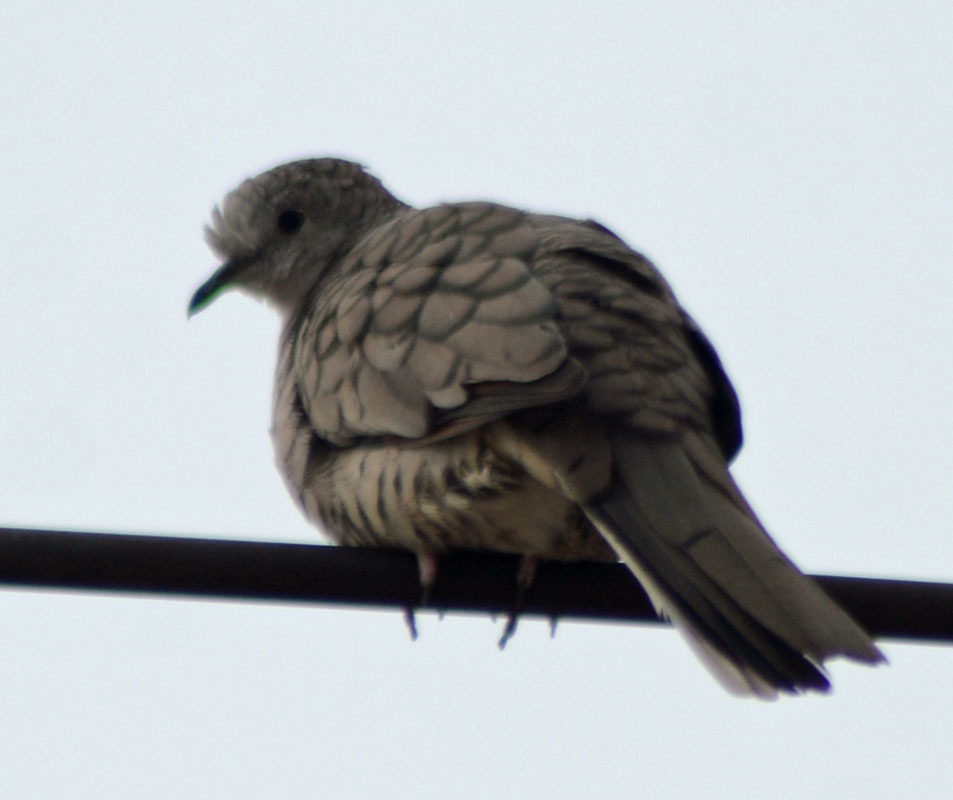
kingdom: Animalia
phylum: Chordata
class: Aves
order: Columbiformes
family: Columbidae
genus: Columbina
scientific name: Columbina inca
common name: Inca dove
